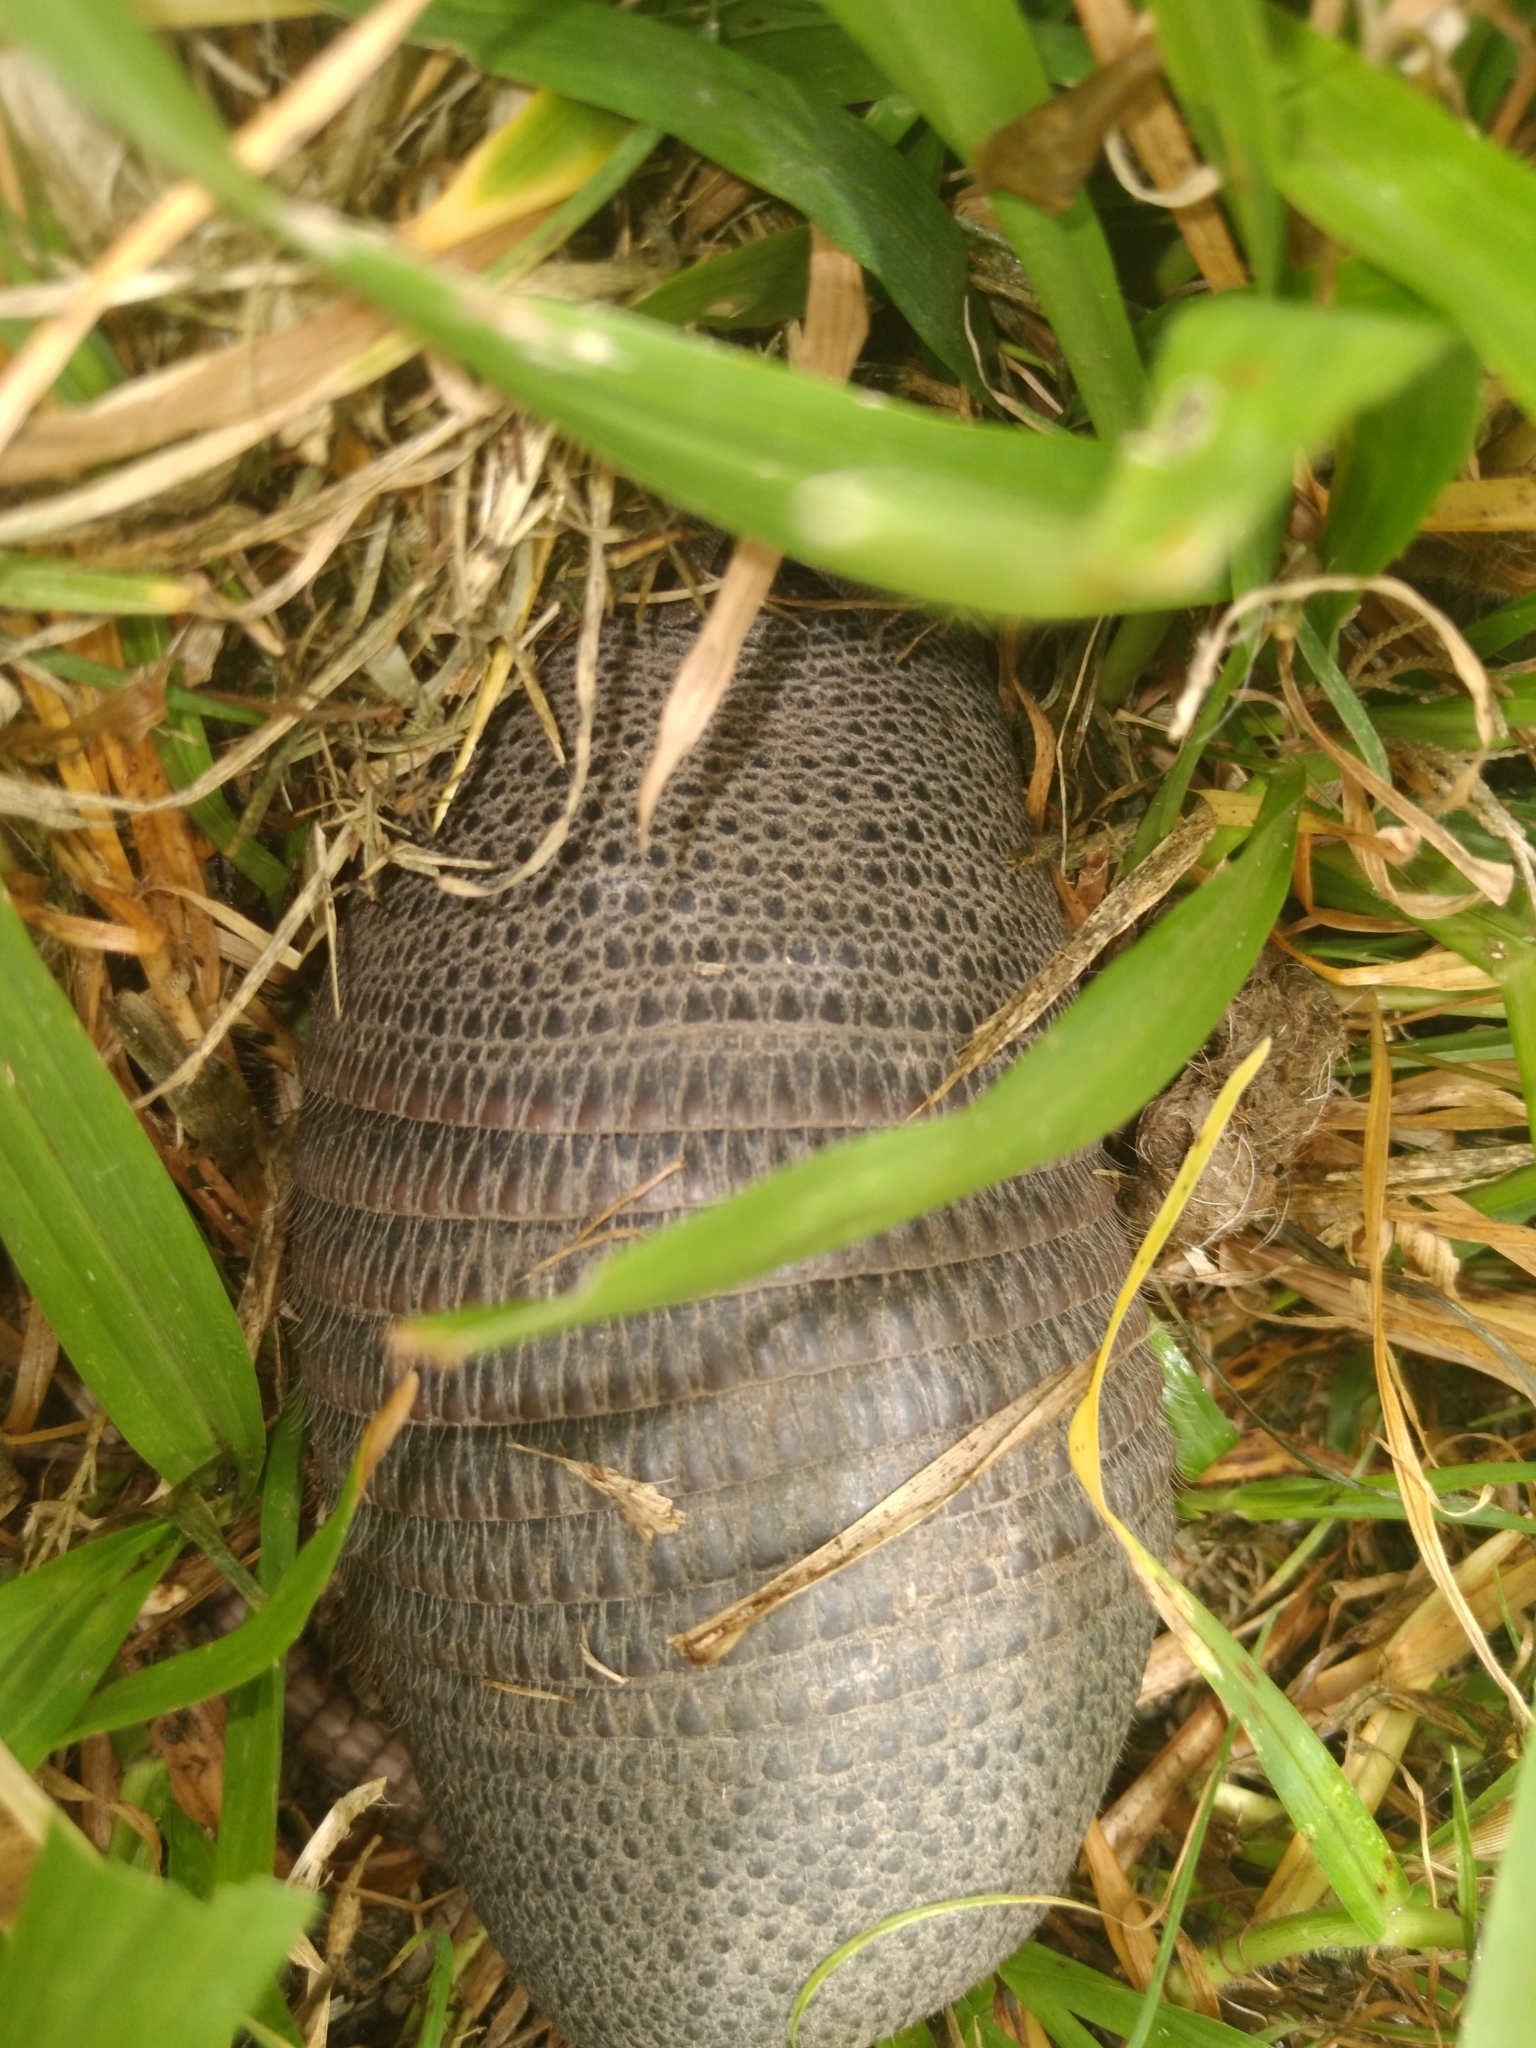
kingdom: Animalia
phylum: Chordata
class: Mammalia
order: Cingulata
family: Dasypodidae
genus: Dasypus
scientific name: Dasypus septemcinctus
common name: Seven-banded armadillo
